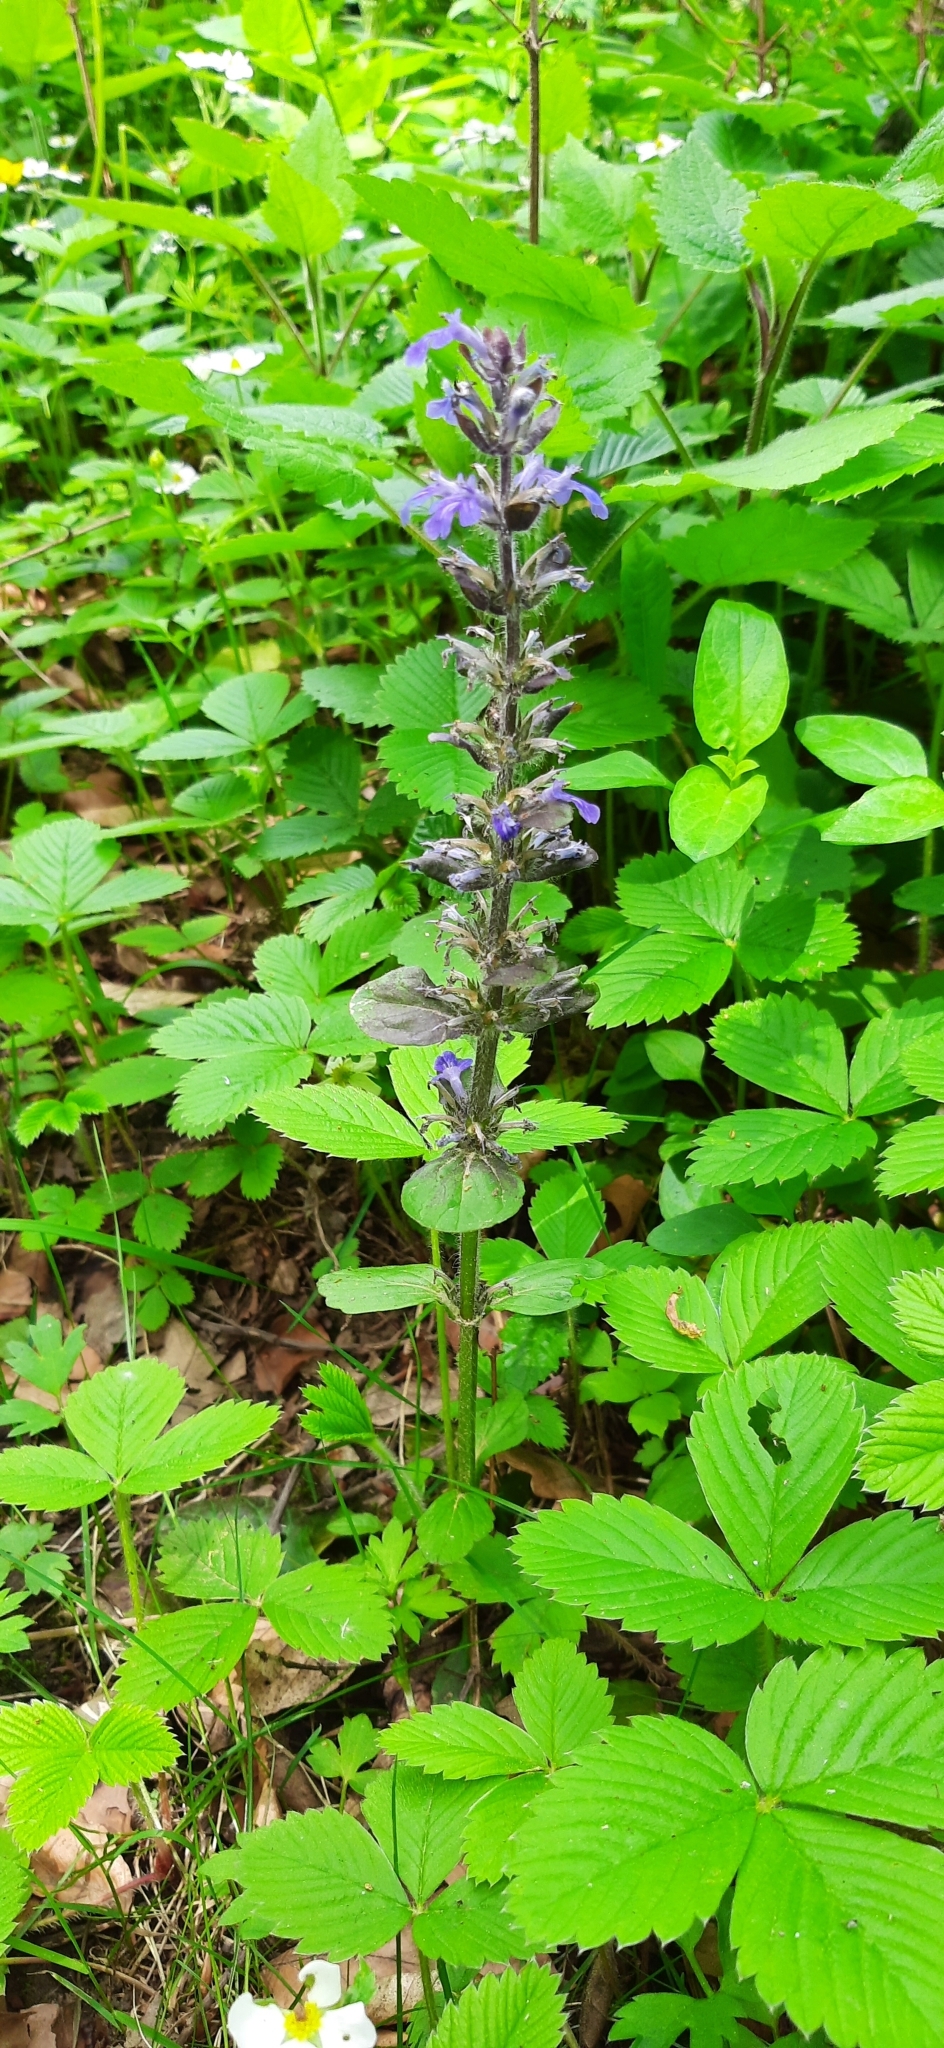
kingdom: Plantae
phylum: Tracheophyta
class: Magnoliopsida
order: Lamiales
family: Lamiaceae
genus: Ajuga
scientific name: Ajuga reptans
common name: Bugle
